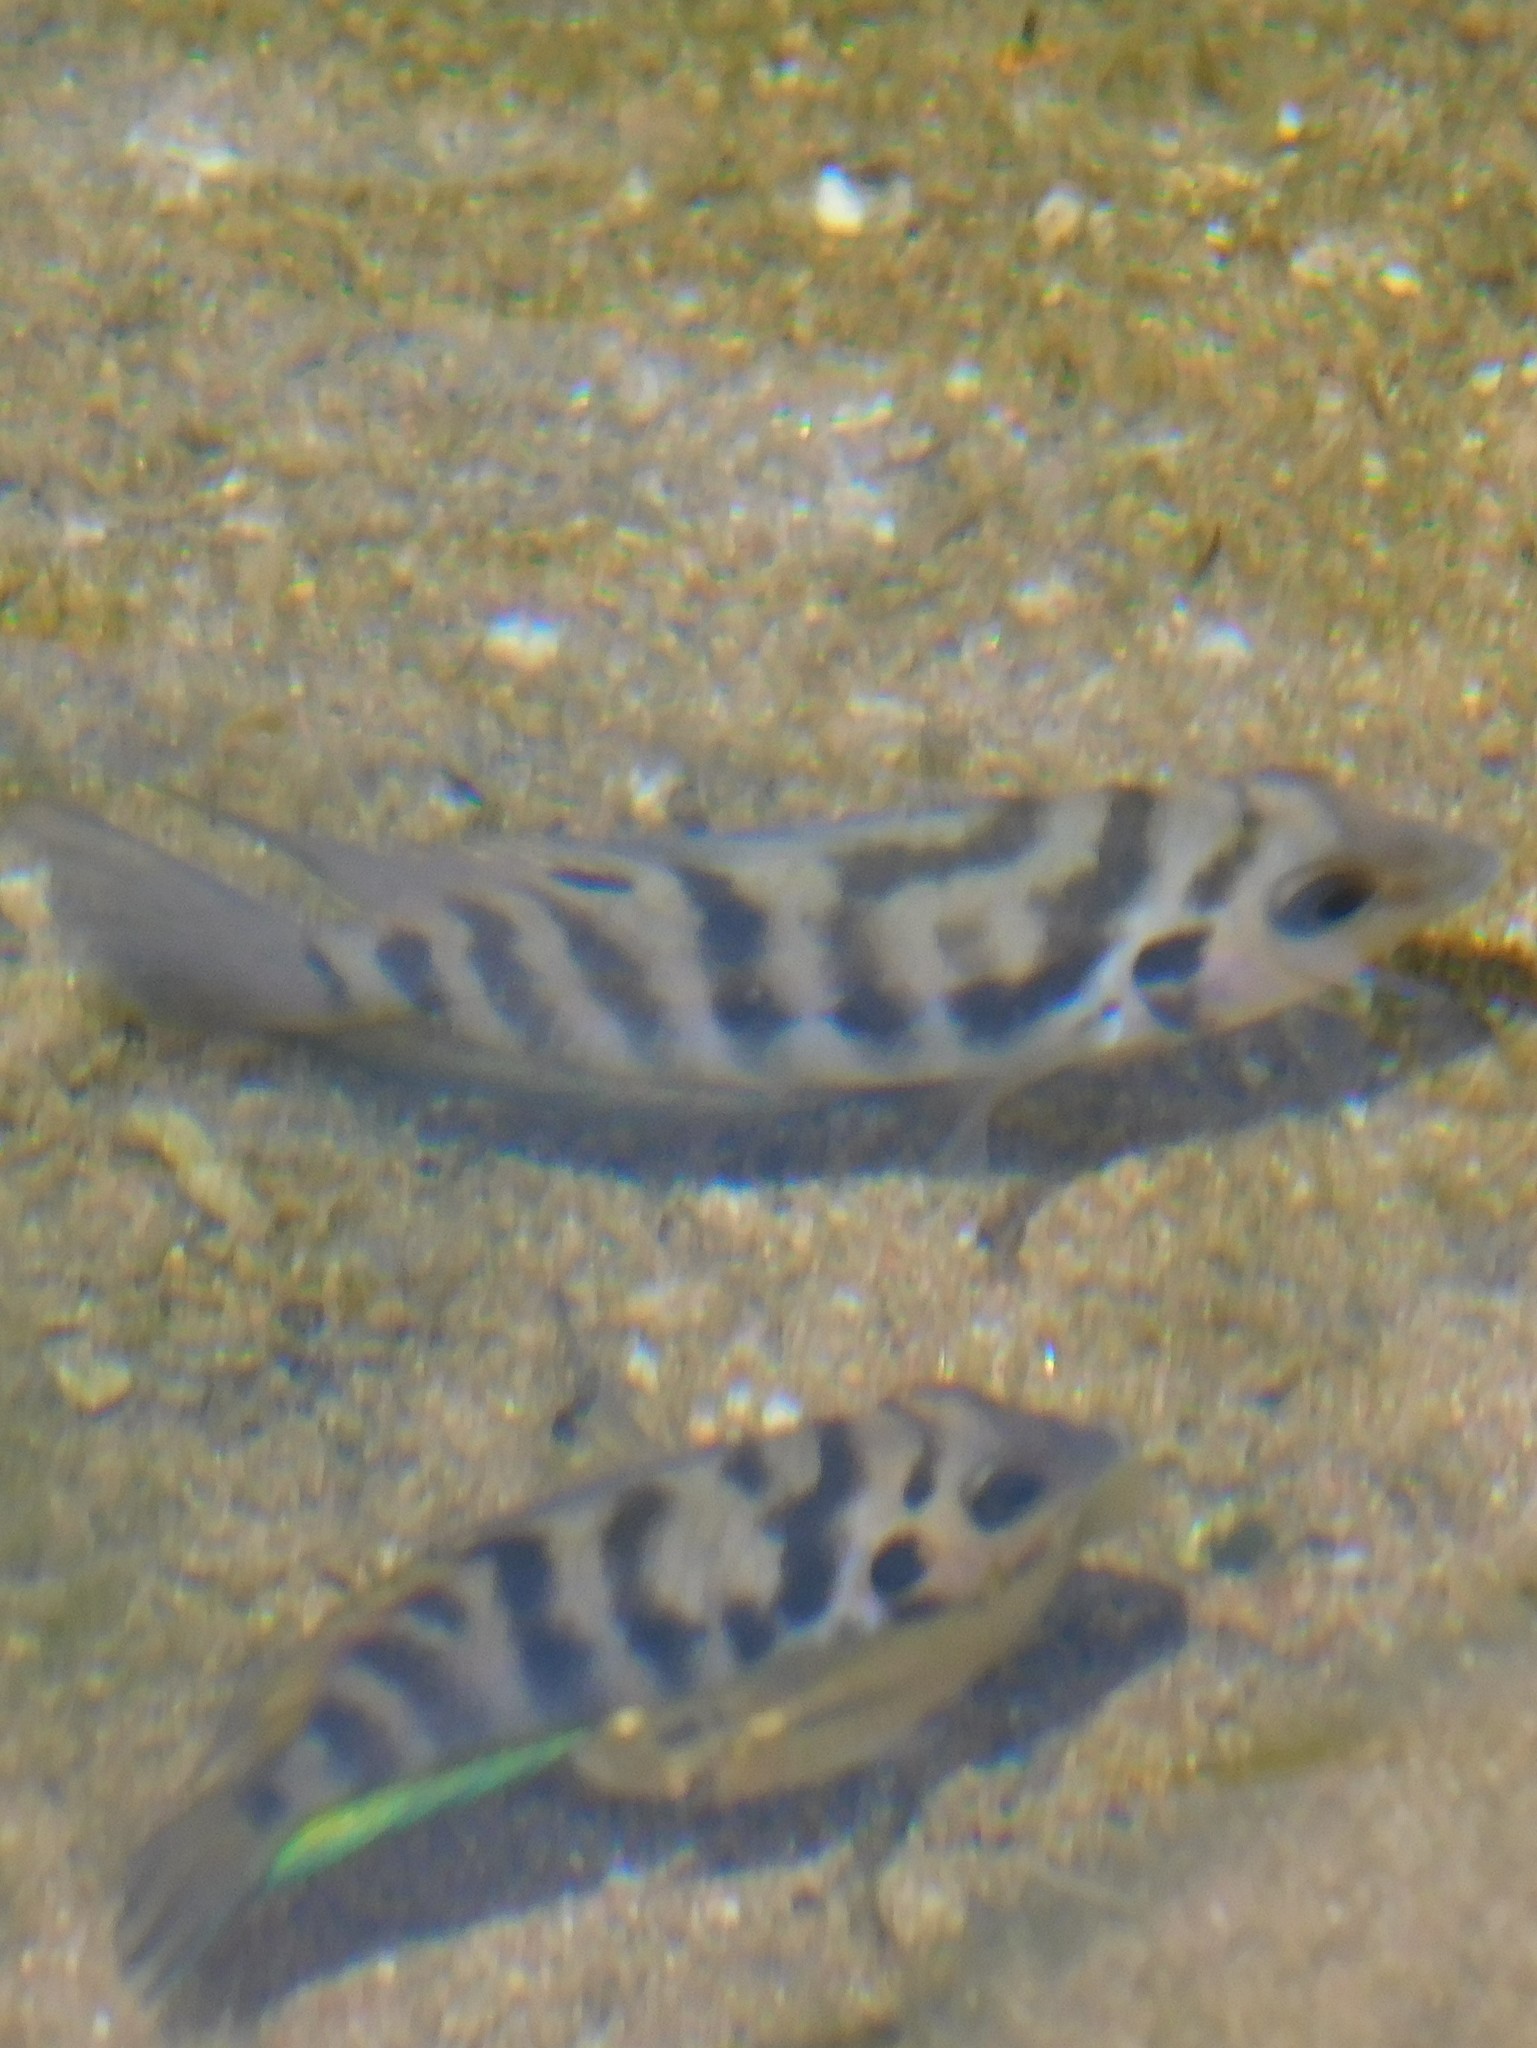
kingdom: Animalia
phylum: Chordata
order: Perciformes
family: Cichlidae
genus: Amatitlania
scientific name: Amatitlania nigrofasciata
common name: Convict cichlid
